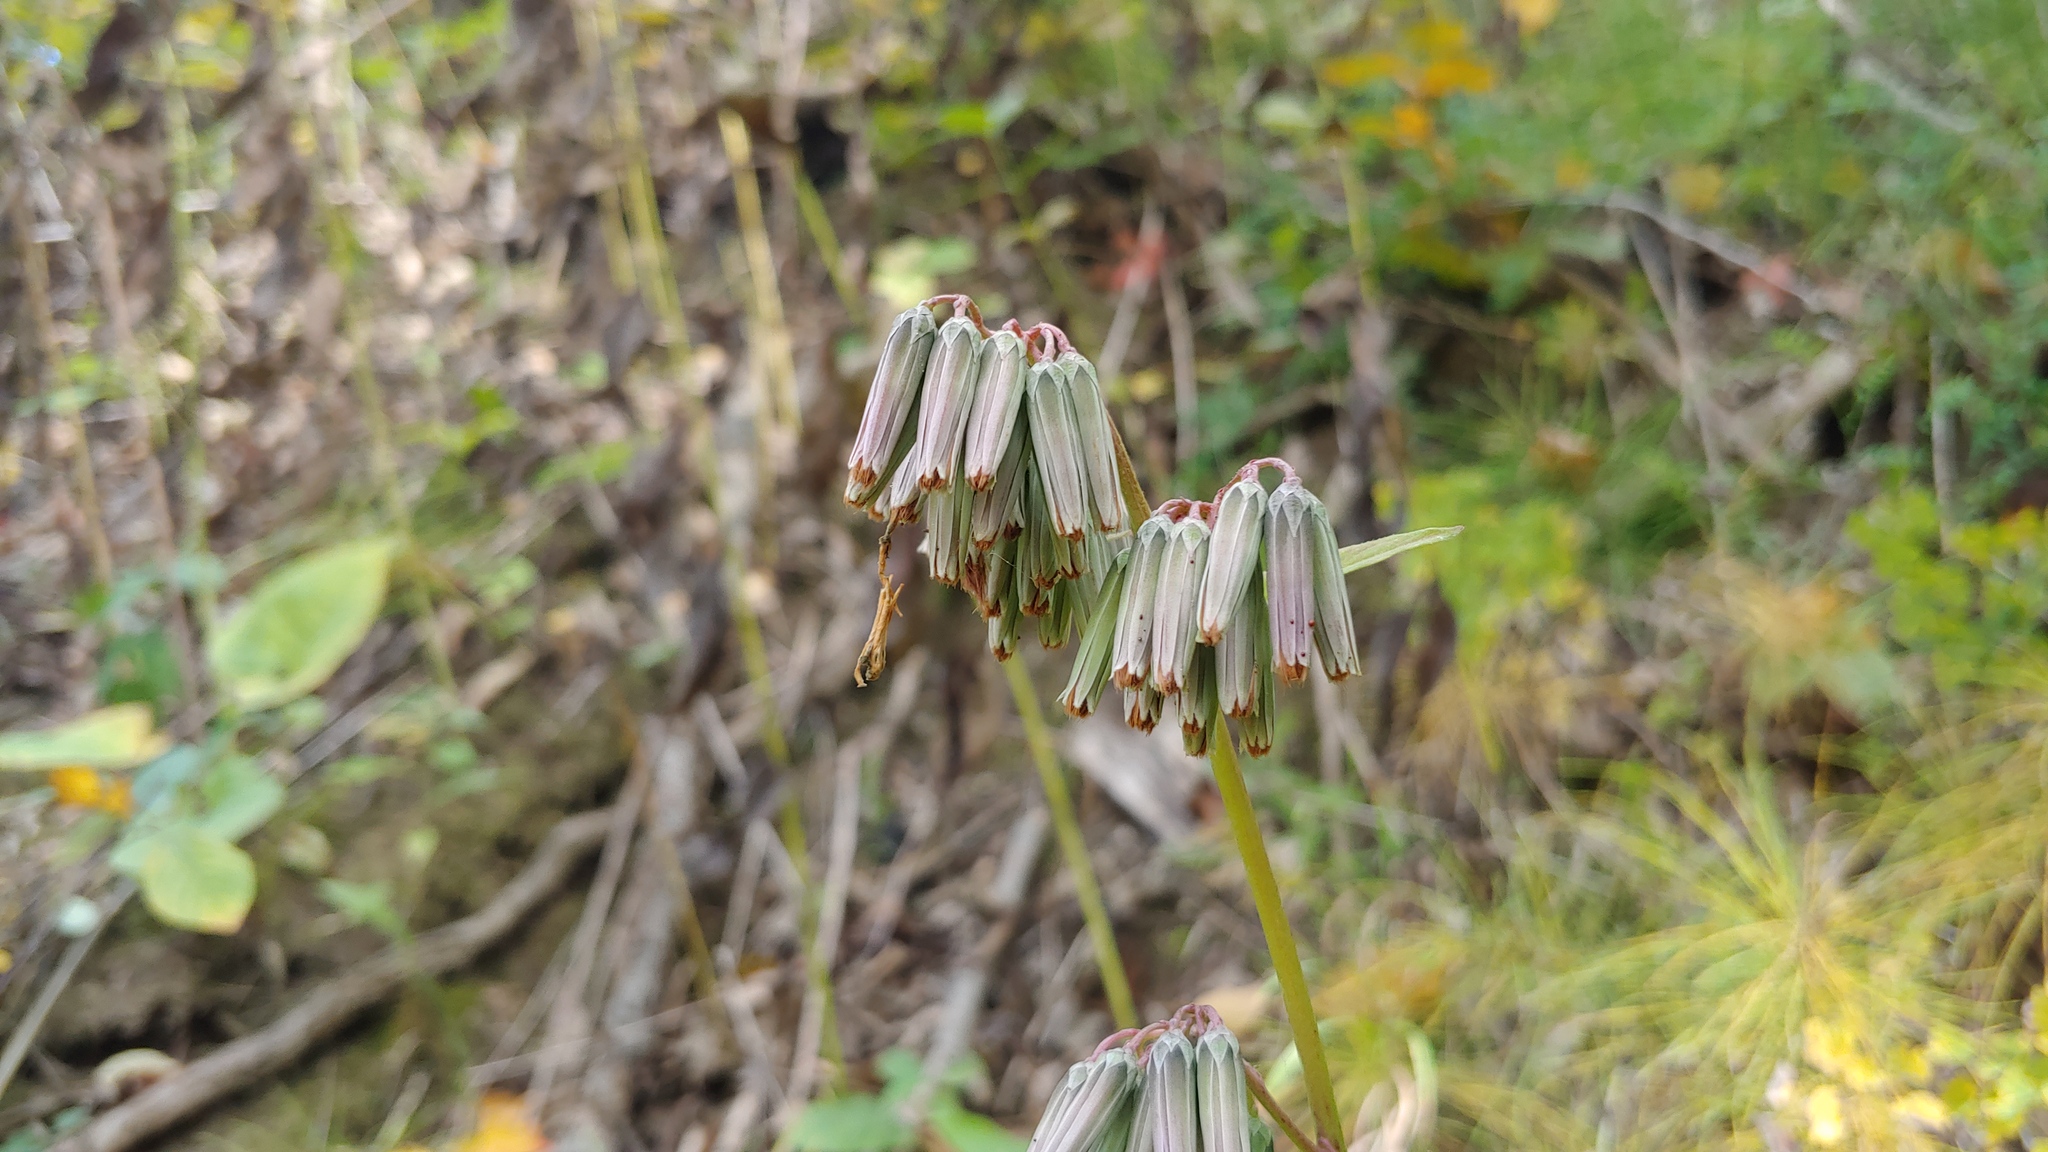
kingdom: Plantae
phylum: Tracheophyta
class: Magnoliopsida
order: Asterales
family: Asteraceae
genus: Nabalus
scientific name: Nabalus albus
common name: White rattlesnakeroot
